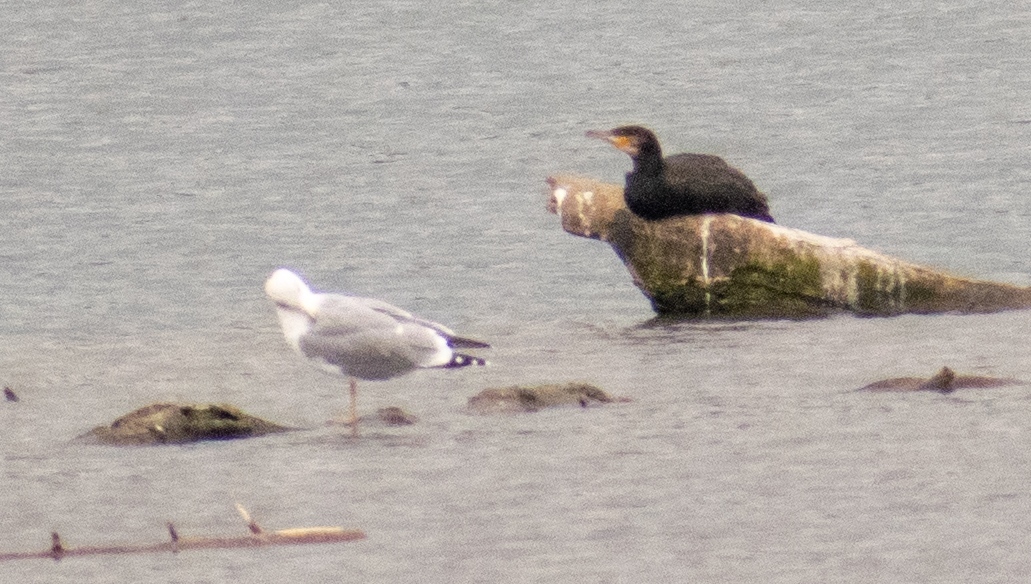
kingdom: Animalia
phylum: Chordata
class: Aves
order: Charadriiformes
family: Laridae
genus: Larus
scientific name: Larus michahellis
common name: Yellow-legged gull
